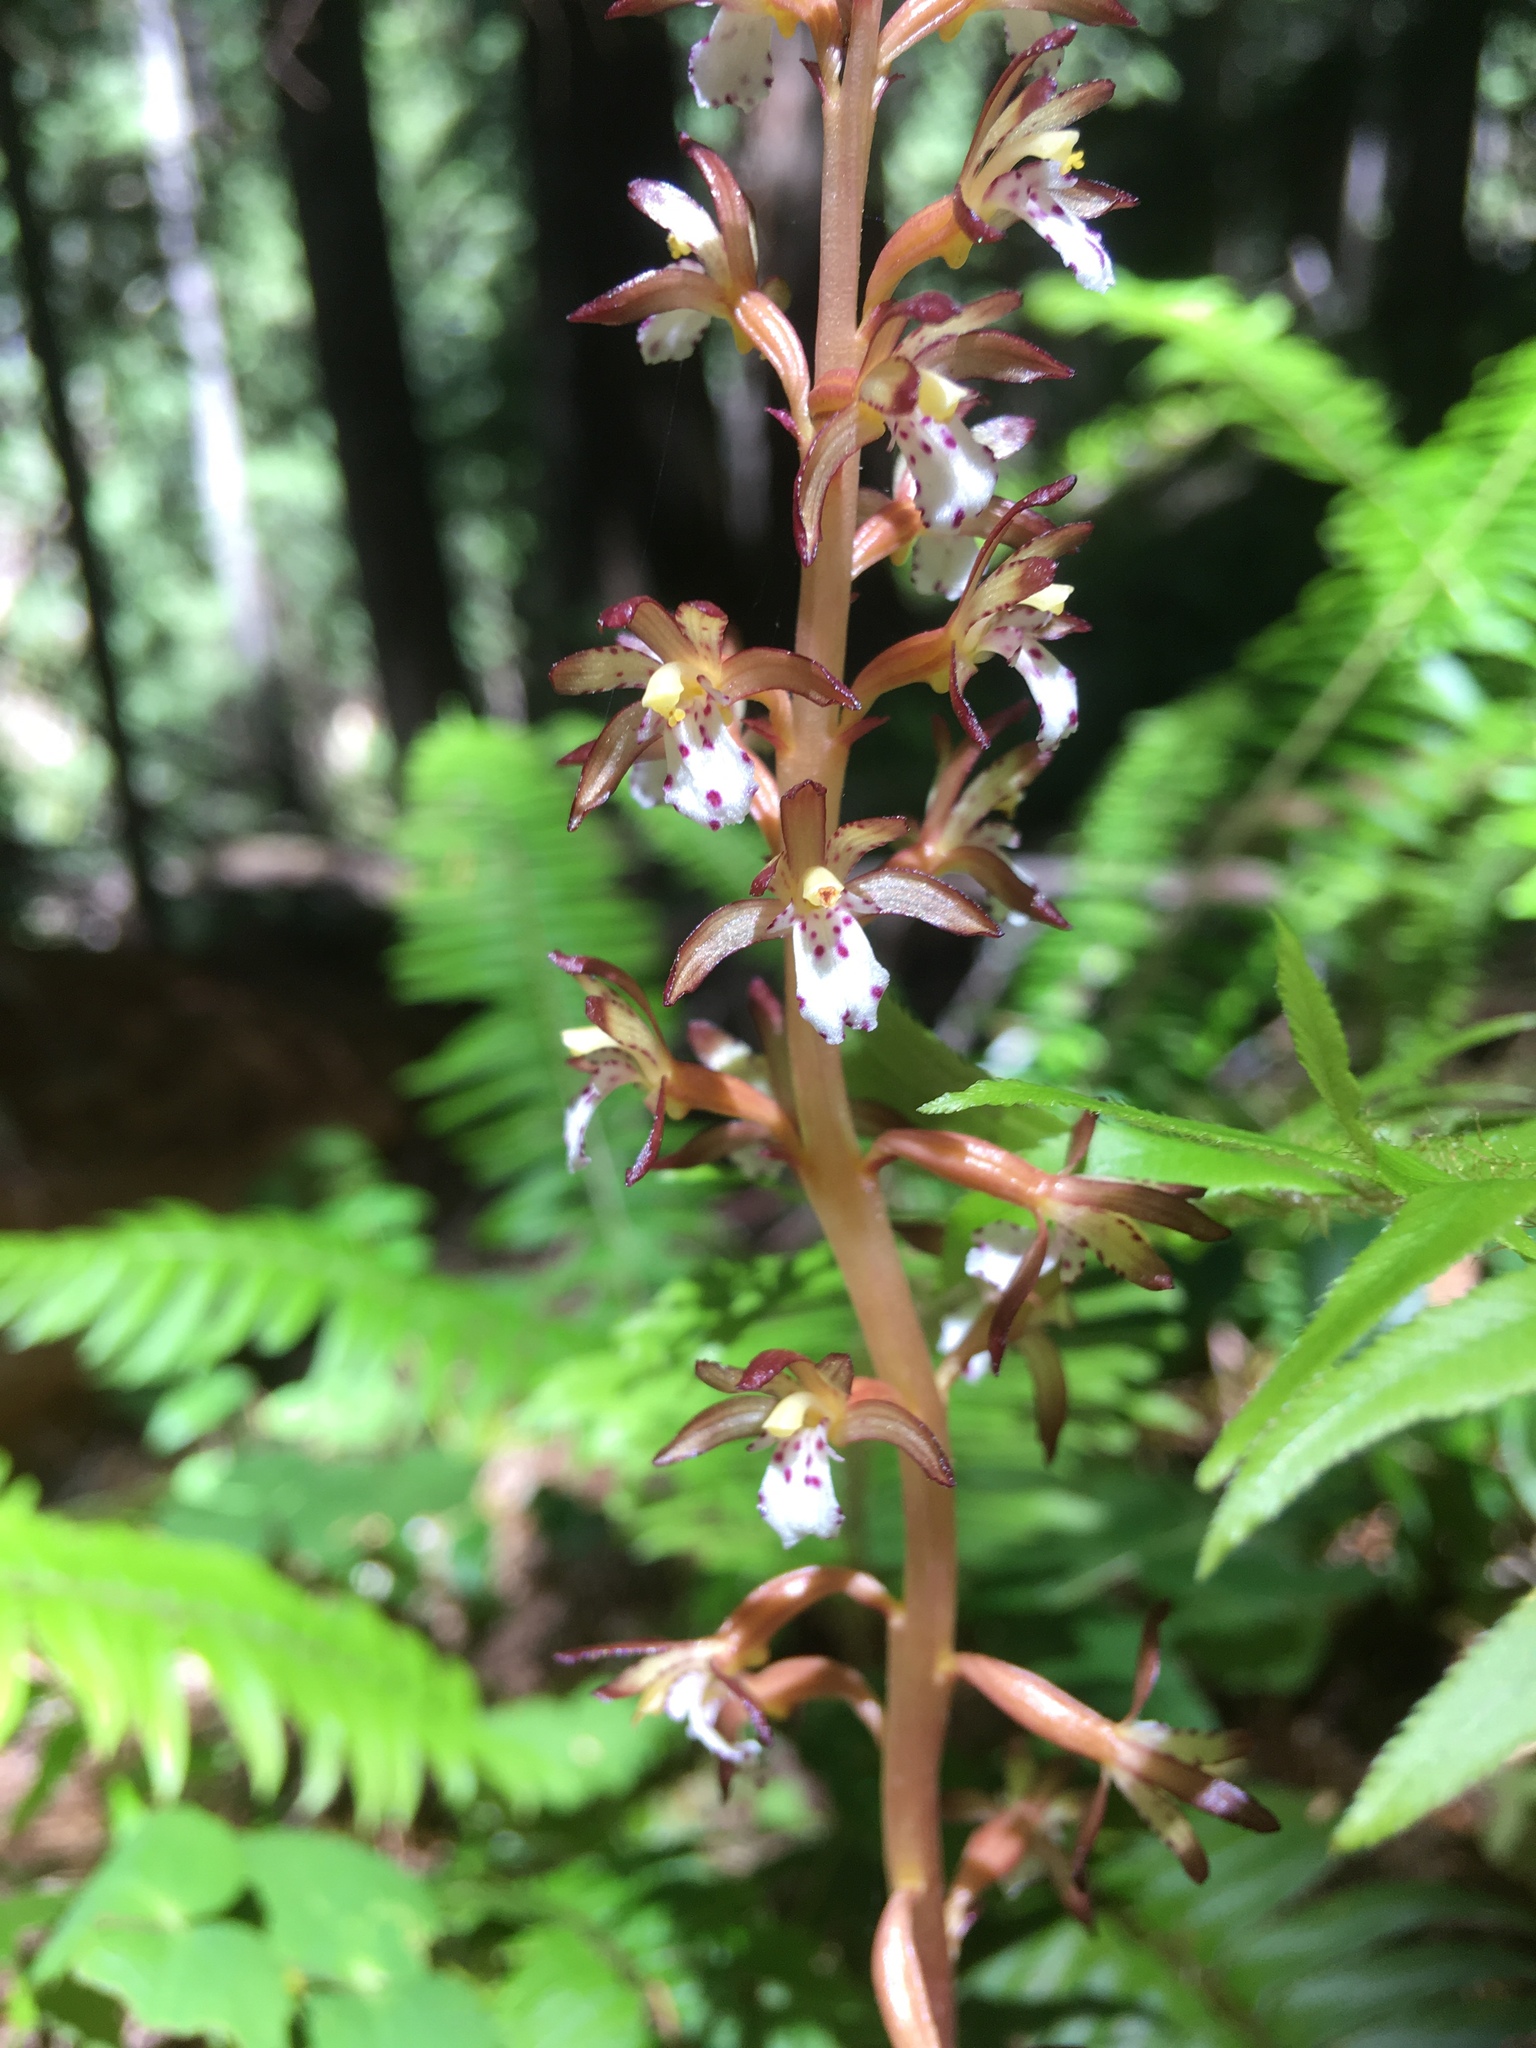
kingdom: Plantae
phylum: Tracheophyta
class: Liliopsida
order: Asparagales
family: Orchidaceae
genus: Corallorhiza
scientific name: Corallorhiza maculata
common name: Spotted coralroot
